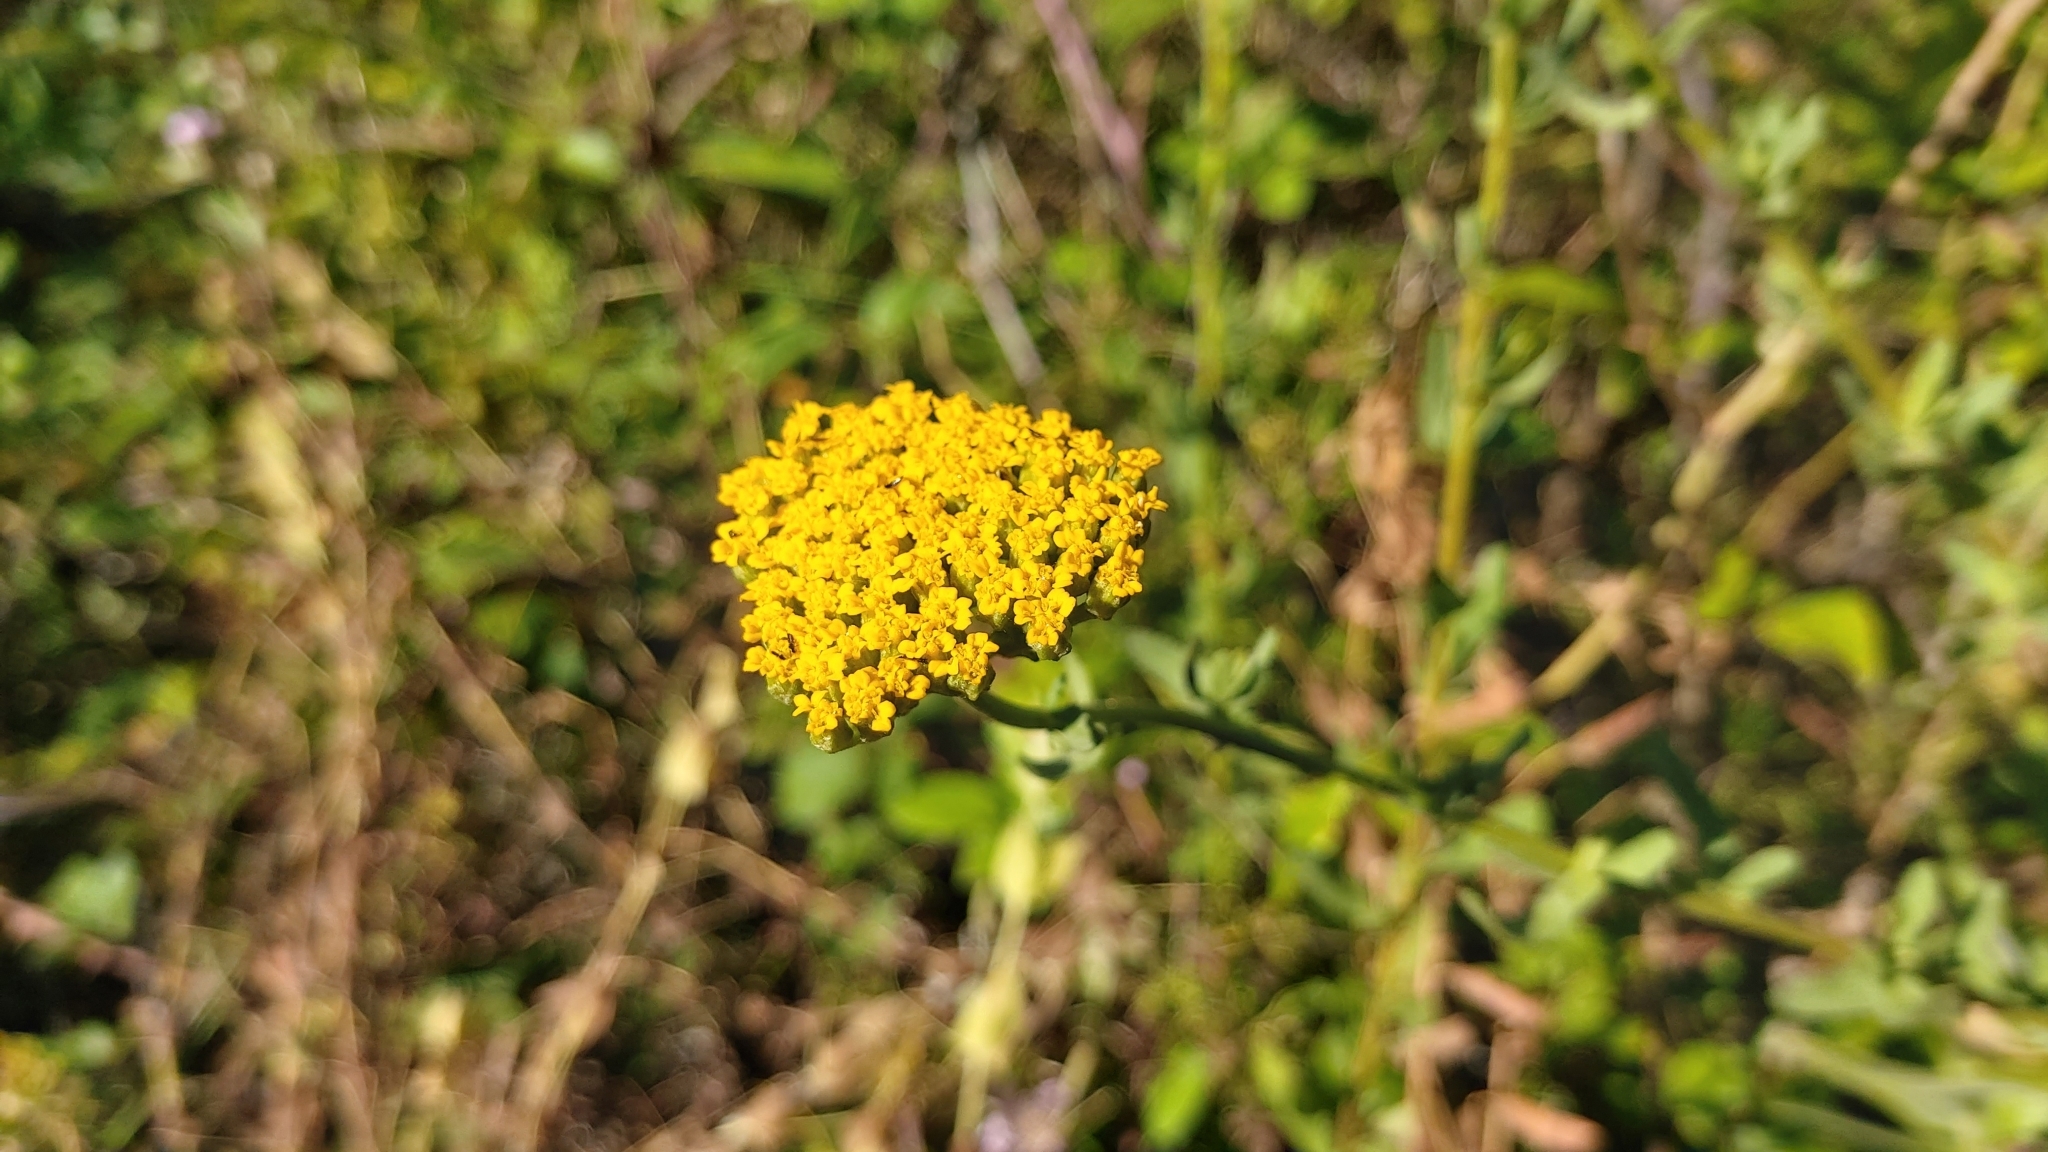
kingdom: Plantae
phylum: Tracheophyta
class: Magnoliopsida
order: Asterales
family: Asteraceae
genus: Achillea
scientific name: Achillea ageratum
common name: Sweet-nancy
